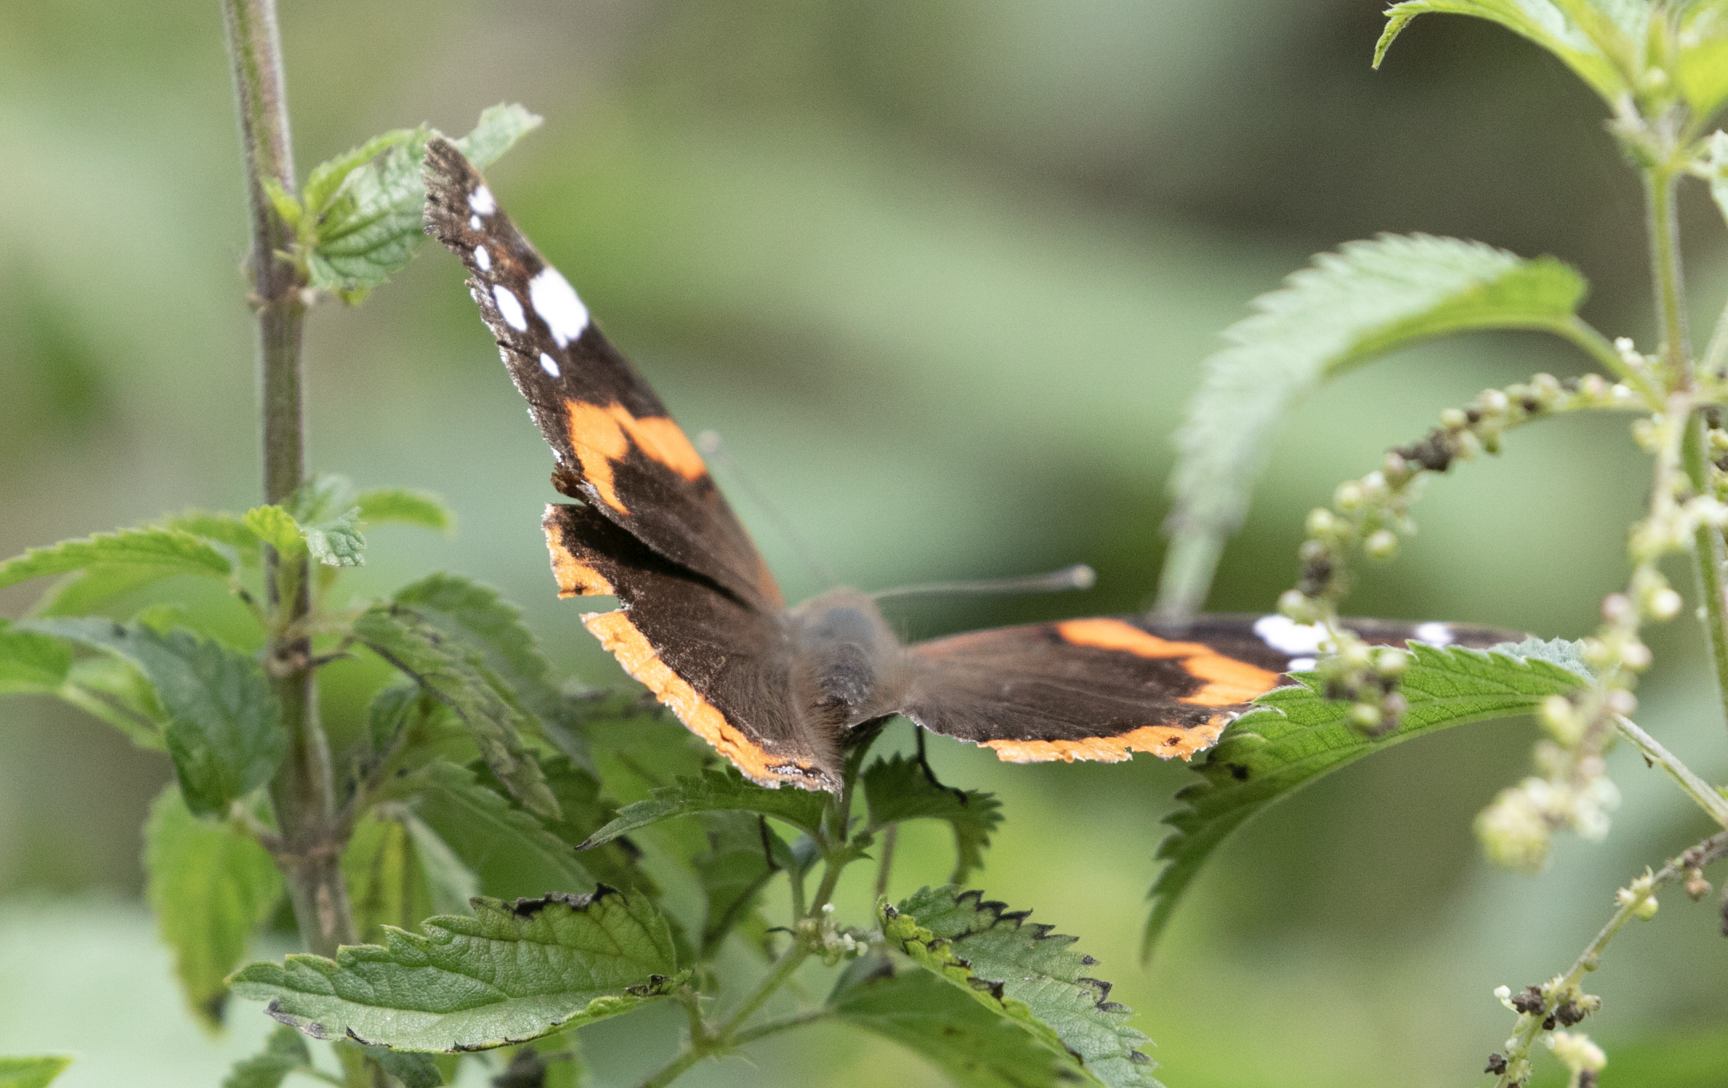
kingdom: Animalia
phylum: Arthropoda
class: Insecta
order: Lepidoptera
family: Nymphalidae
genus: Vanessa
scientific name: Vanessa atalanta
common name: Red admiral
